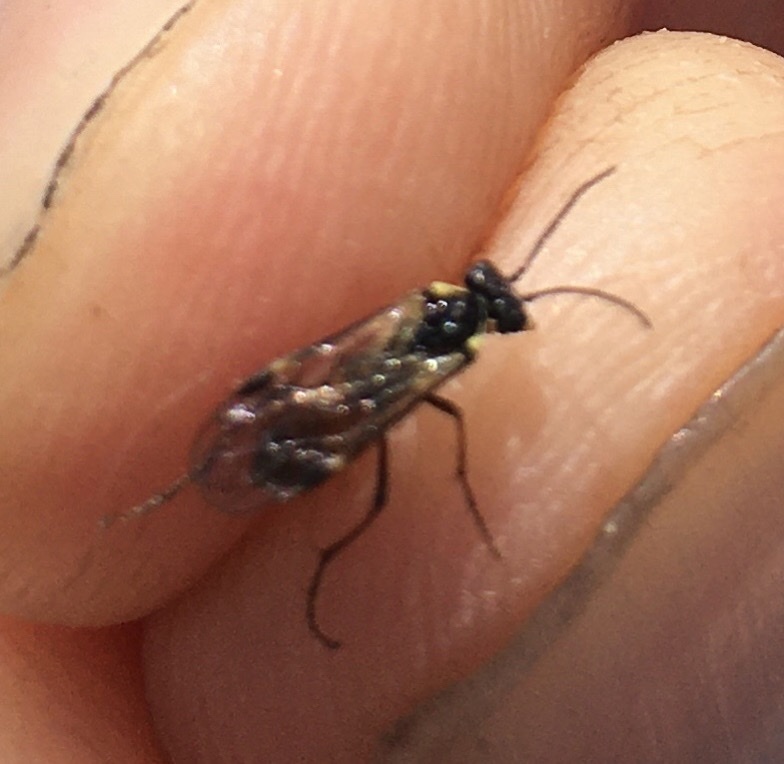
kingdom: Animalia
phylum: Arthropoda
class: Insecta
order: Hymenoptera
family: Tenthredinidae
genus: Aglaostigma
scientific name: Aglaostigma aucupariae
